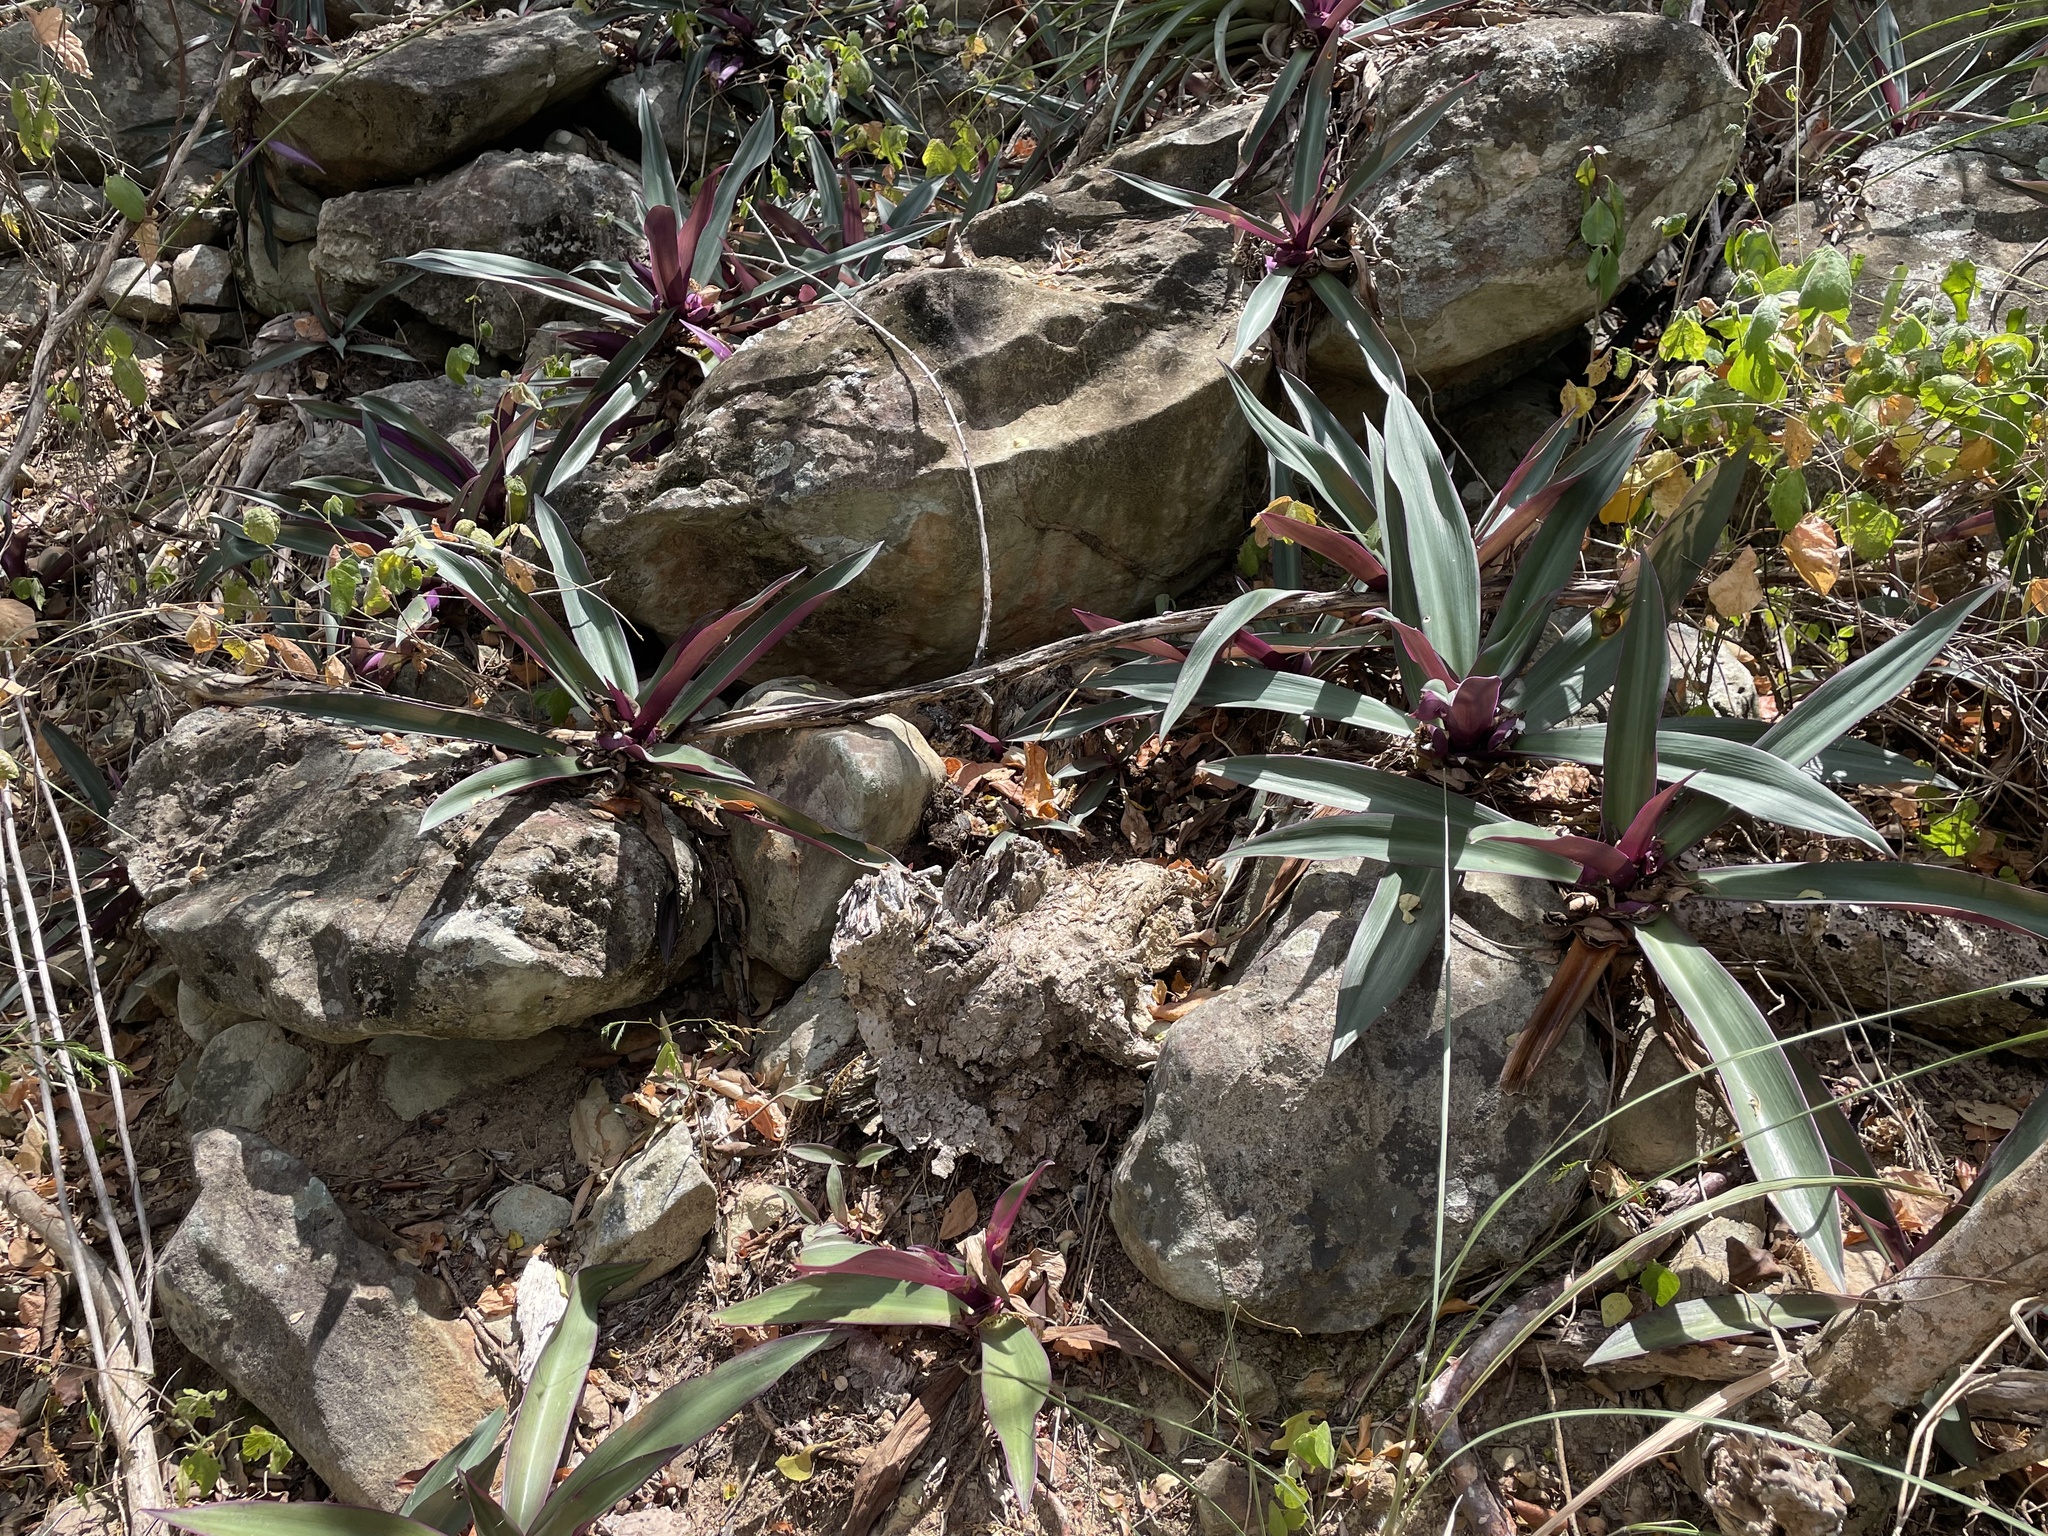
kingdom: Plantae
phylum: Tracheophyta
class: Liliopsida
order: Commelinales
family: Commelinaceae
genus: Tradescantia
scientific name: Tradescantia spathacea
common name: Boatlily
